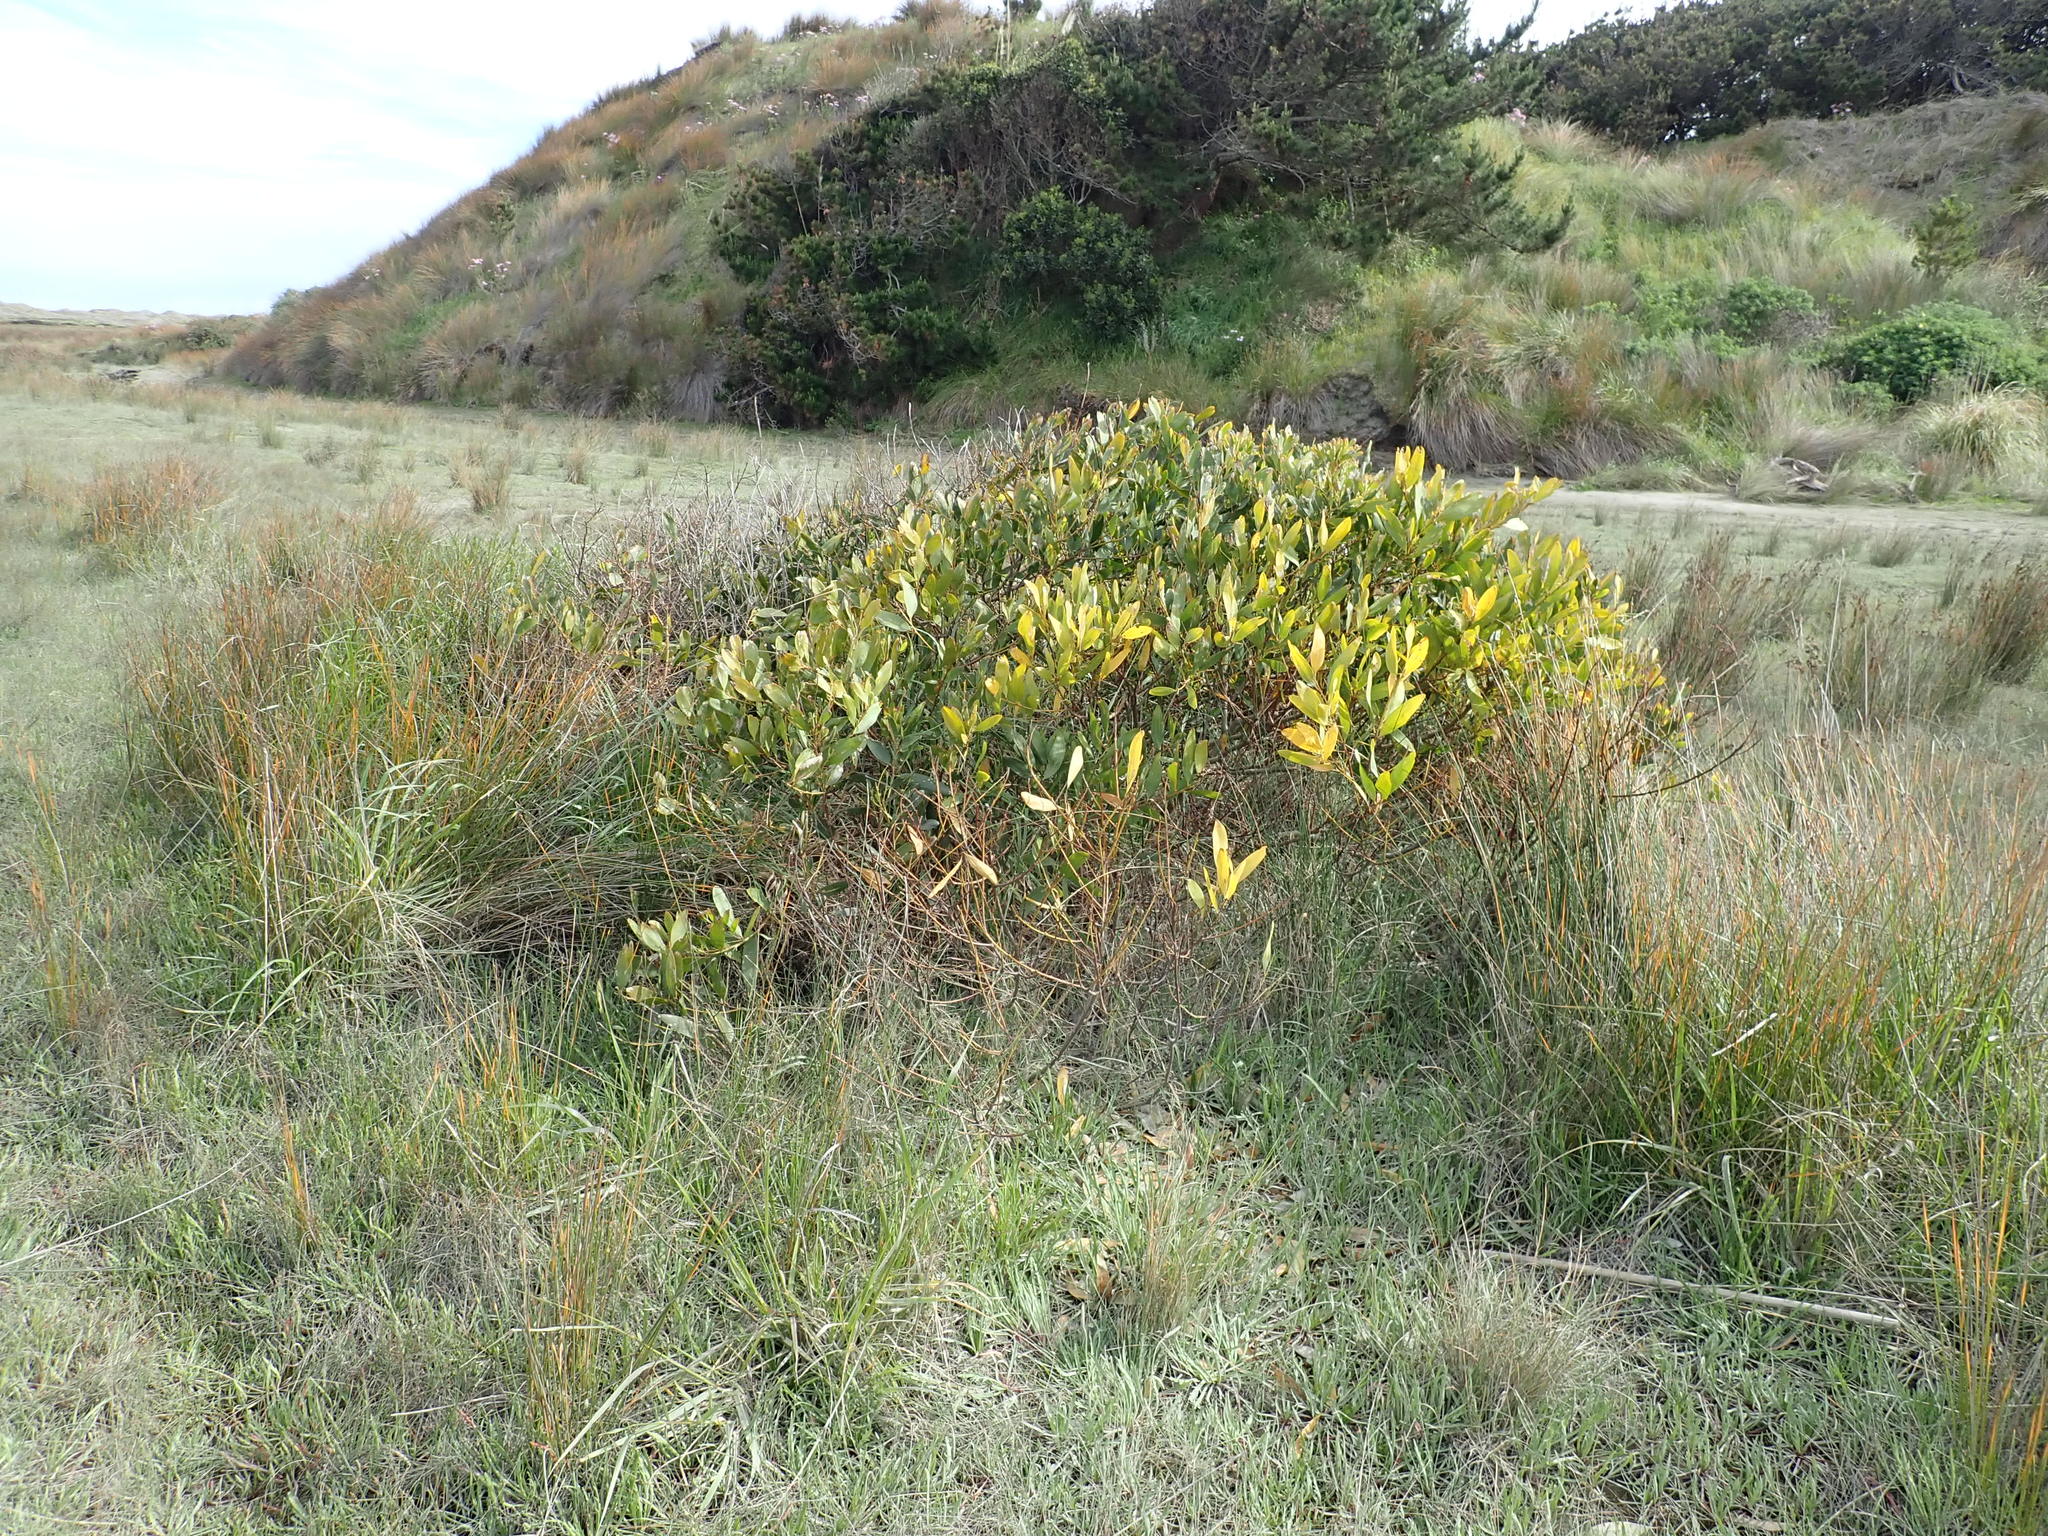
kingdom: Plantae
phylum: Tracheophyta
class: Magnoliopsida
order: Fabales
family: Fabaceae
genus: Acacia
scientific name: Acacia longifolia
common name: Sydney golden wattle
